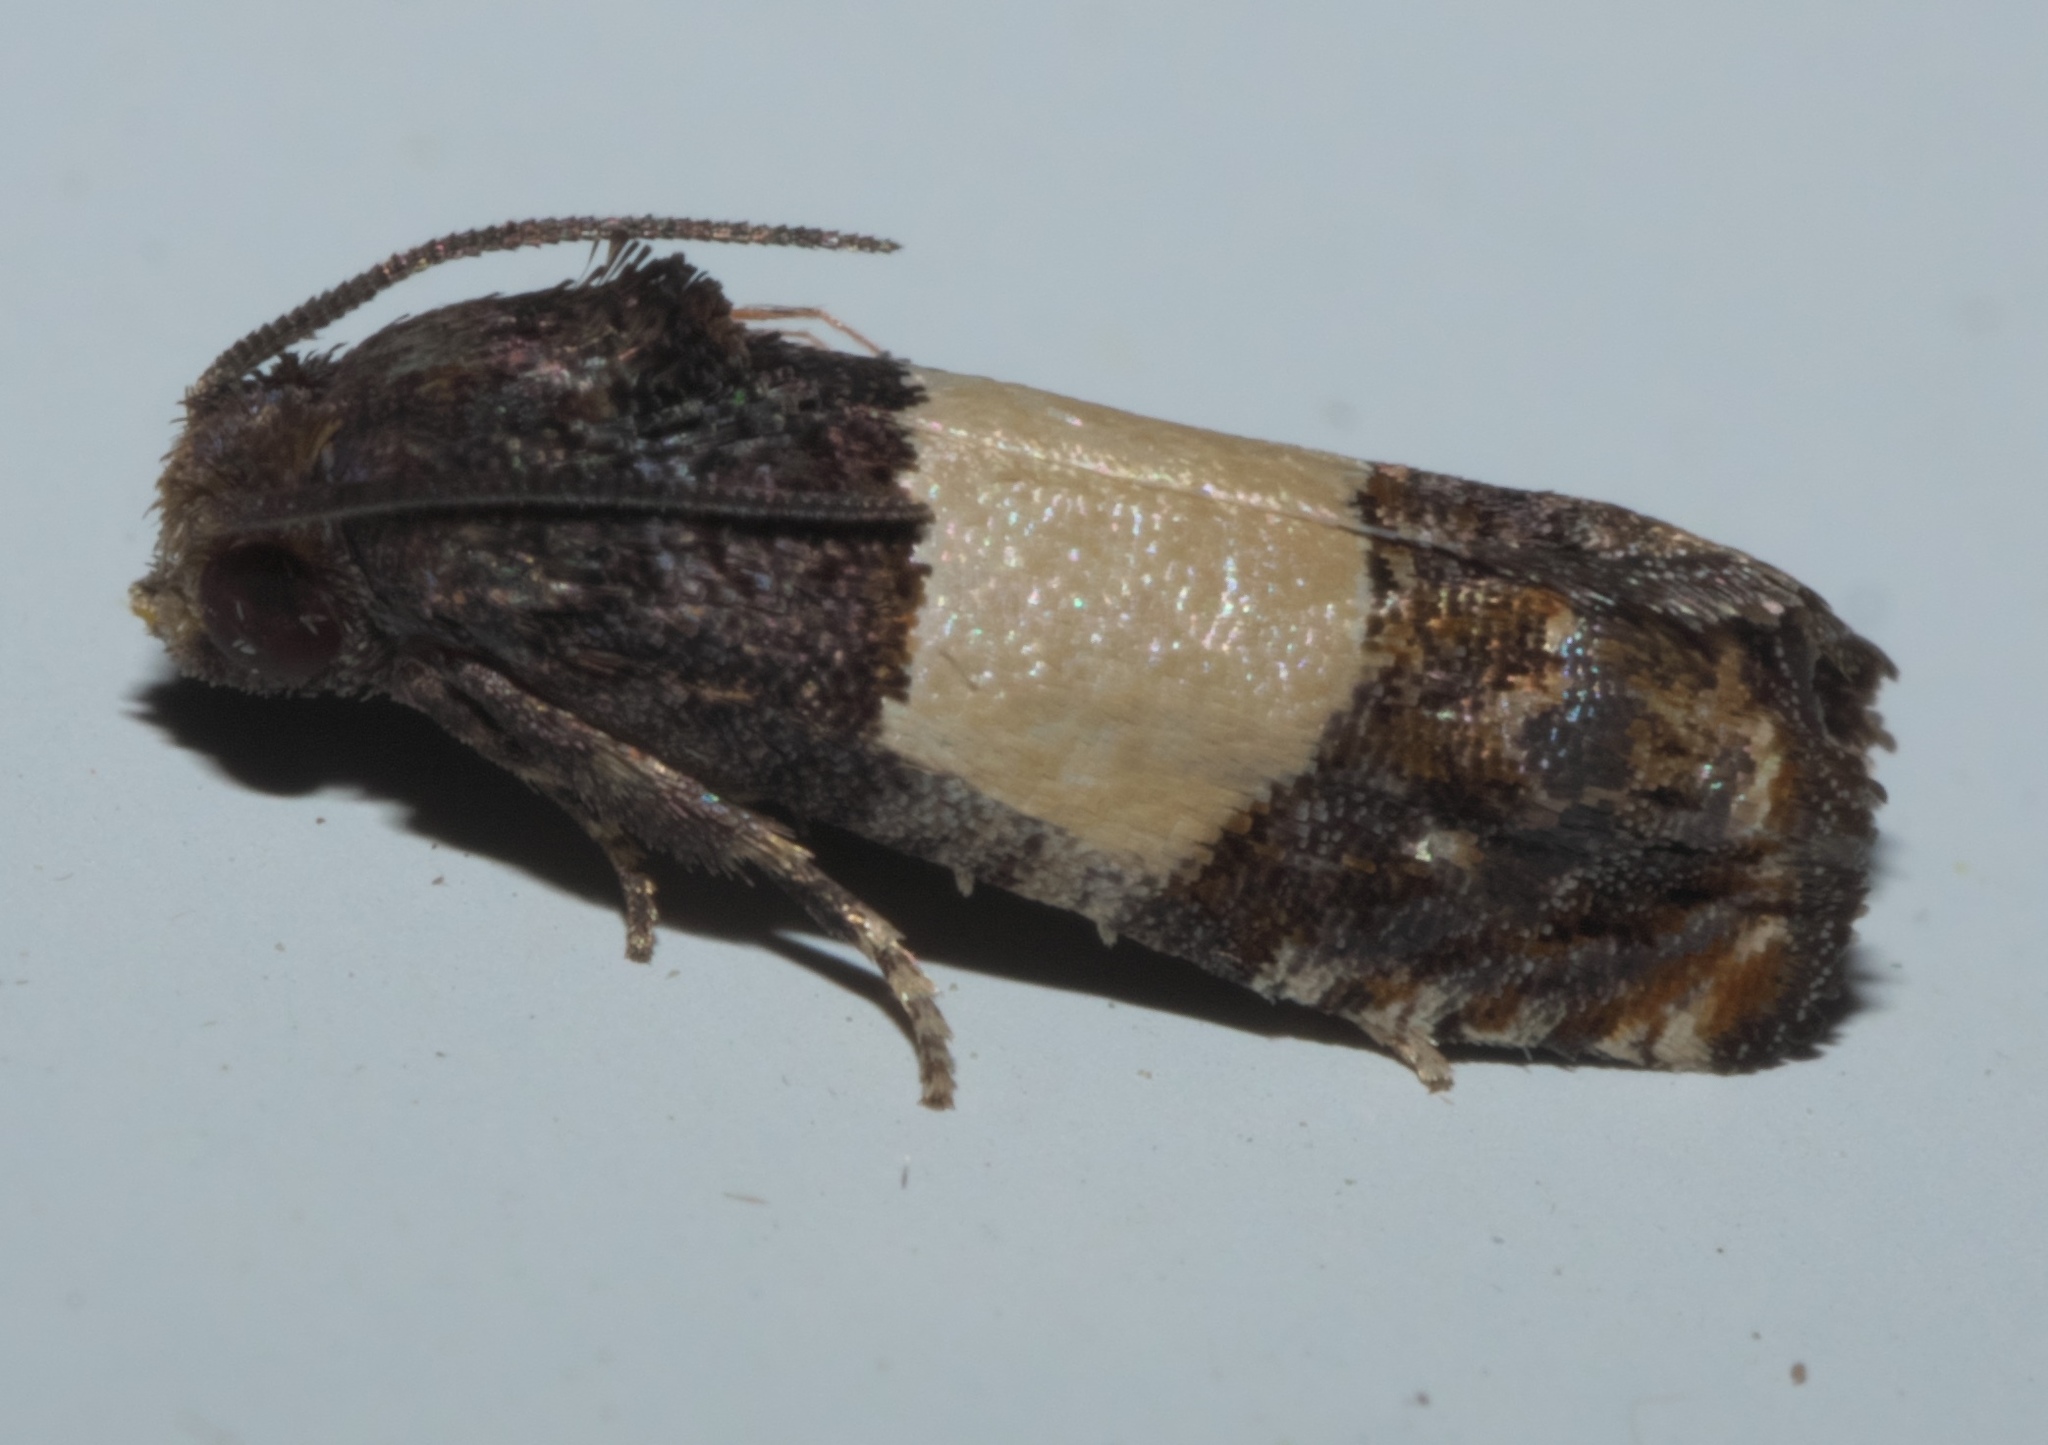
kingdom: Animalia
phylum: Arthropoda
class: Insecta
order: Lepidoptera
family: Tortricidae
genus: Epiblema
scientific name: Epiblema tripartitana
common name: Three-parted epiblema moth
